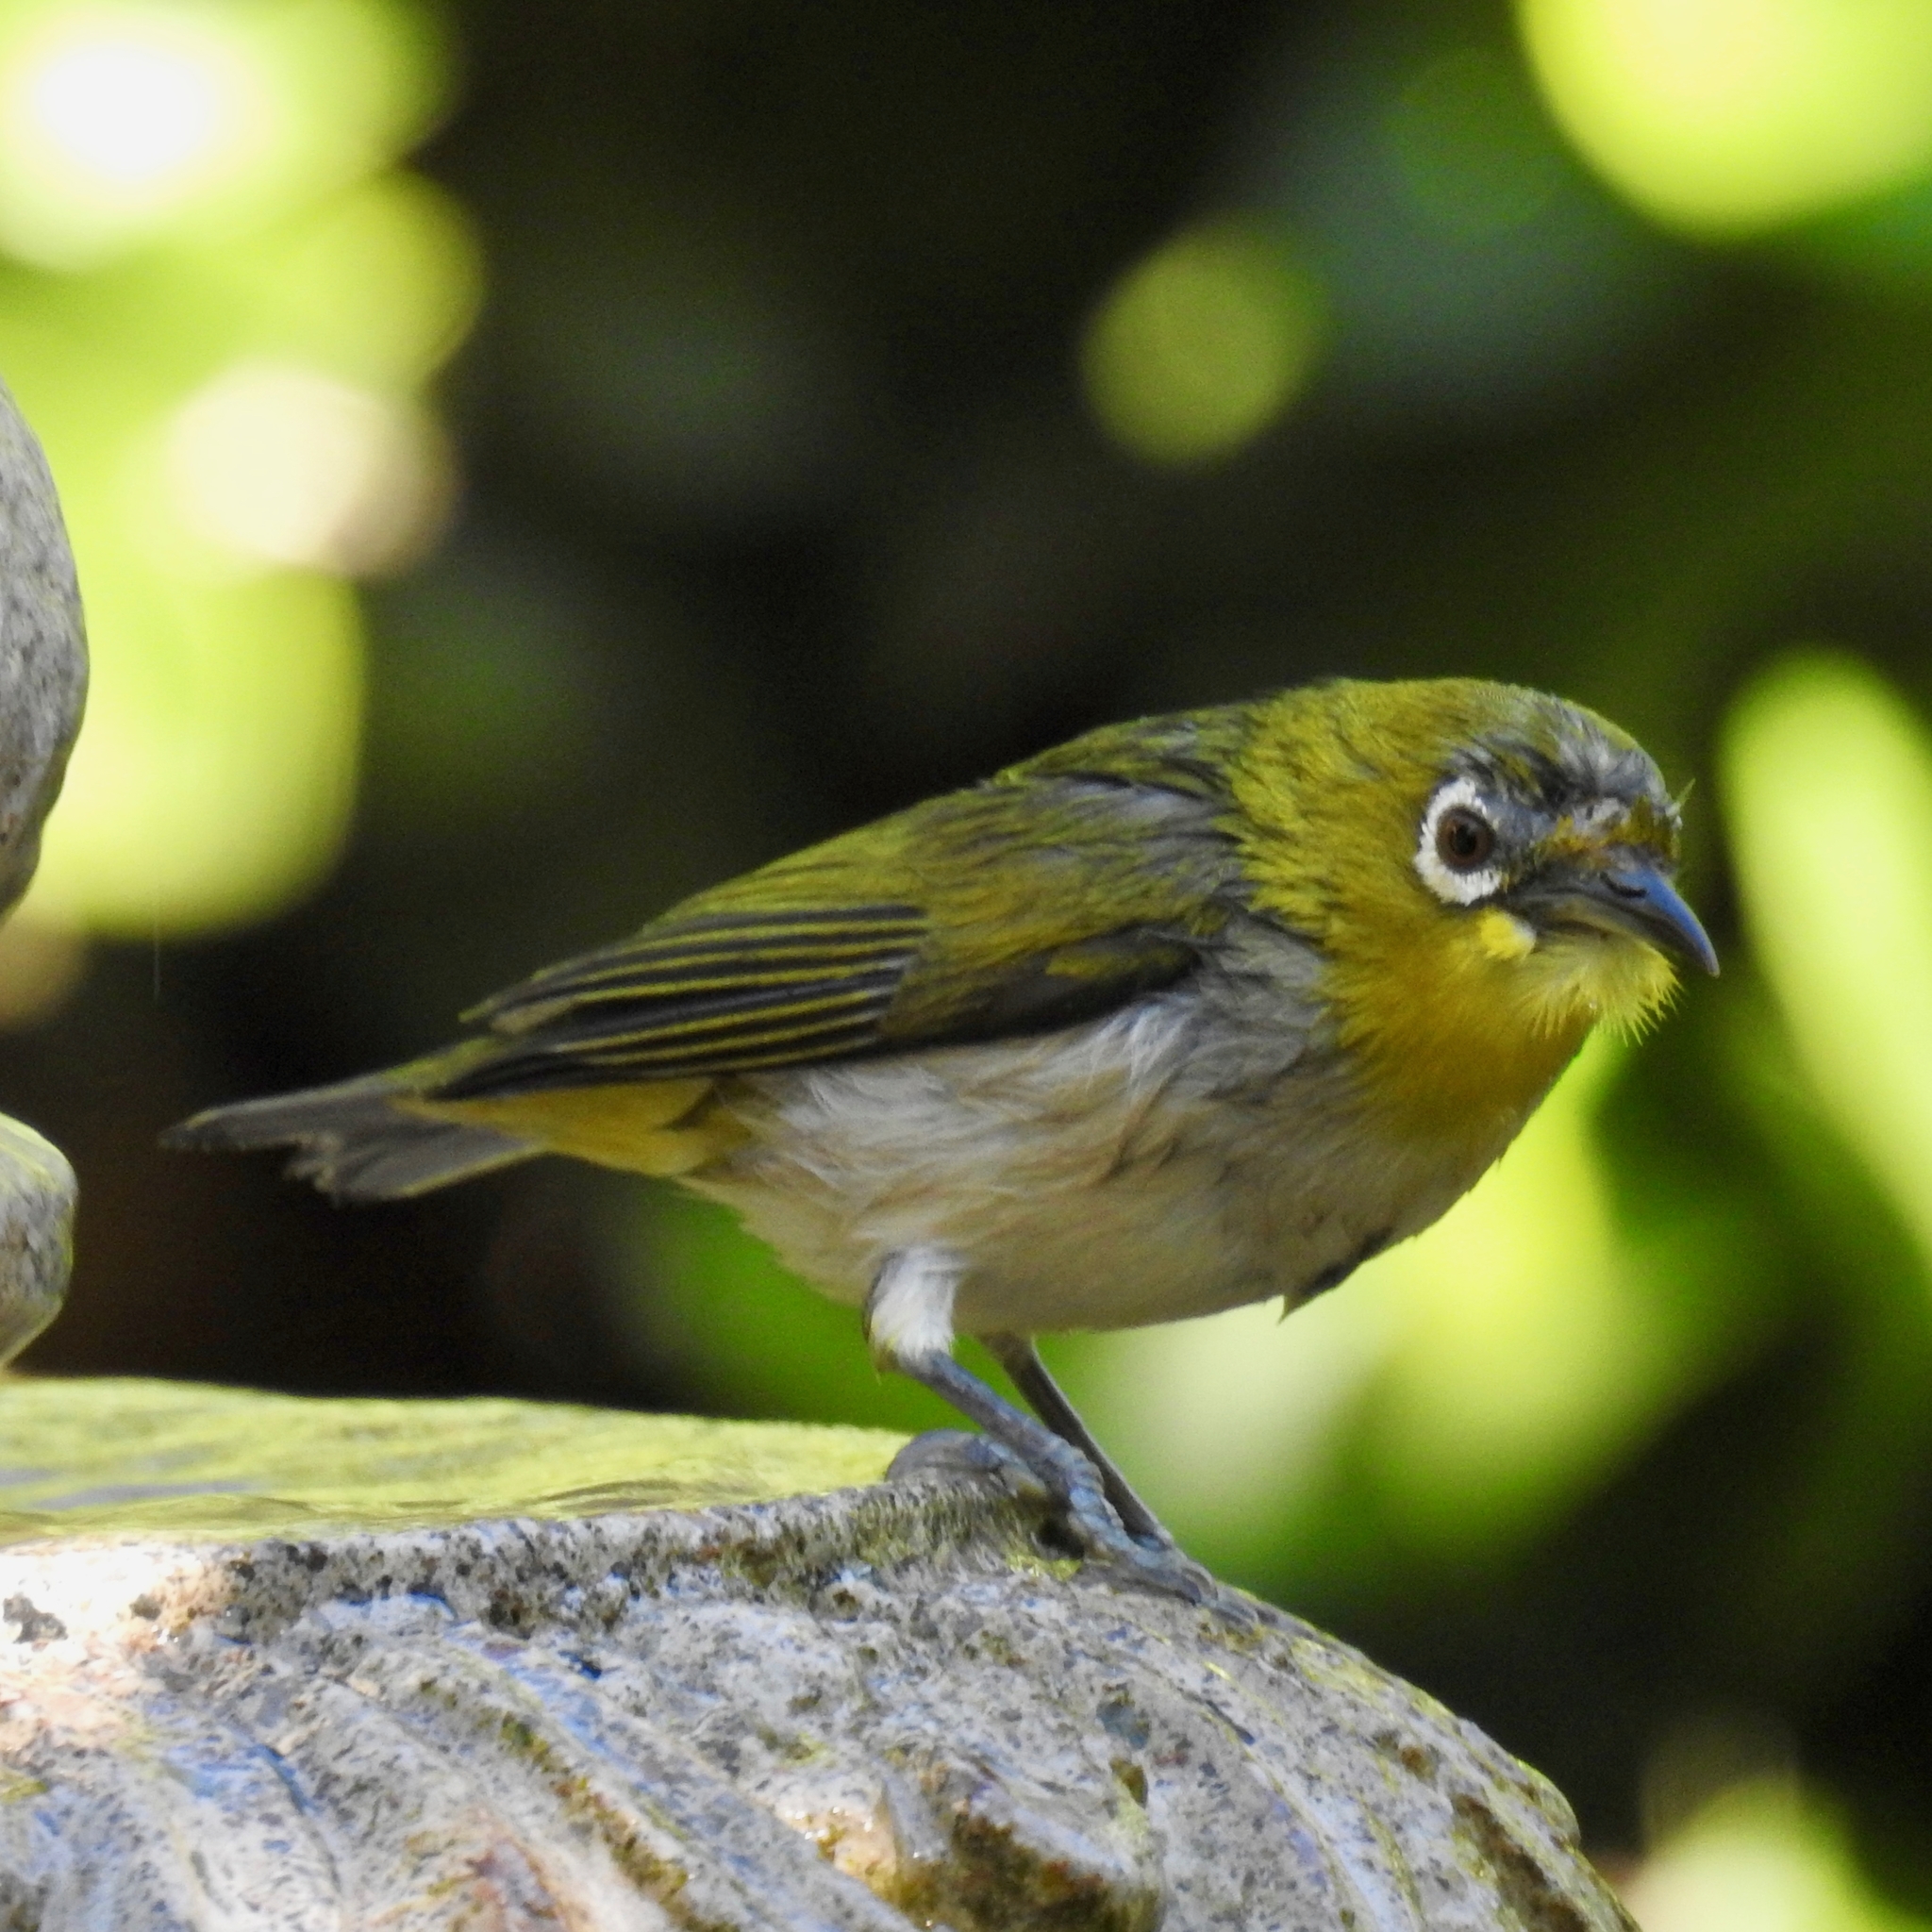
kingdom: Animalia
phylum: Chordata
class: Aves
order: Passeriformes
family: Zosteropidae
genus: Zosterops
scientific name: Zosterops simplex
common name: Swinhoe's white-eye
